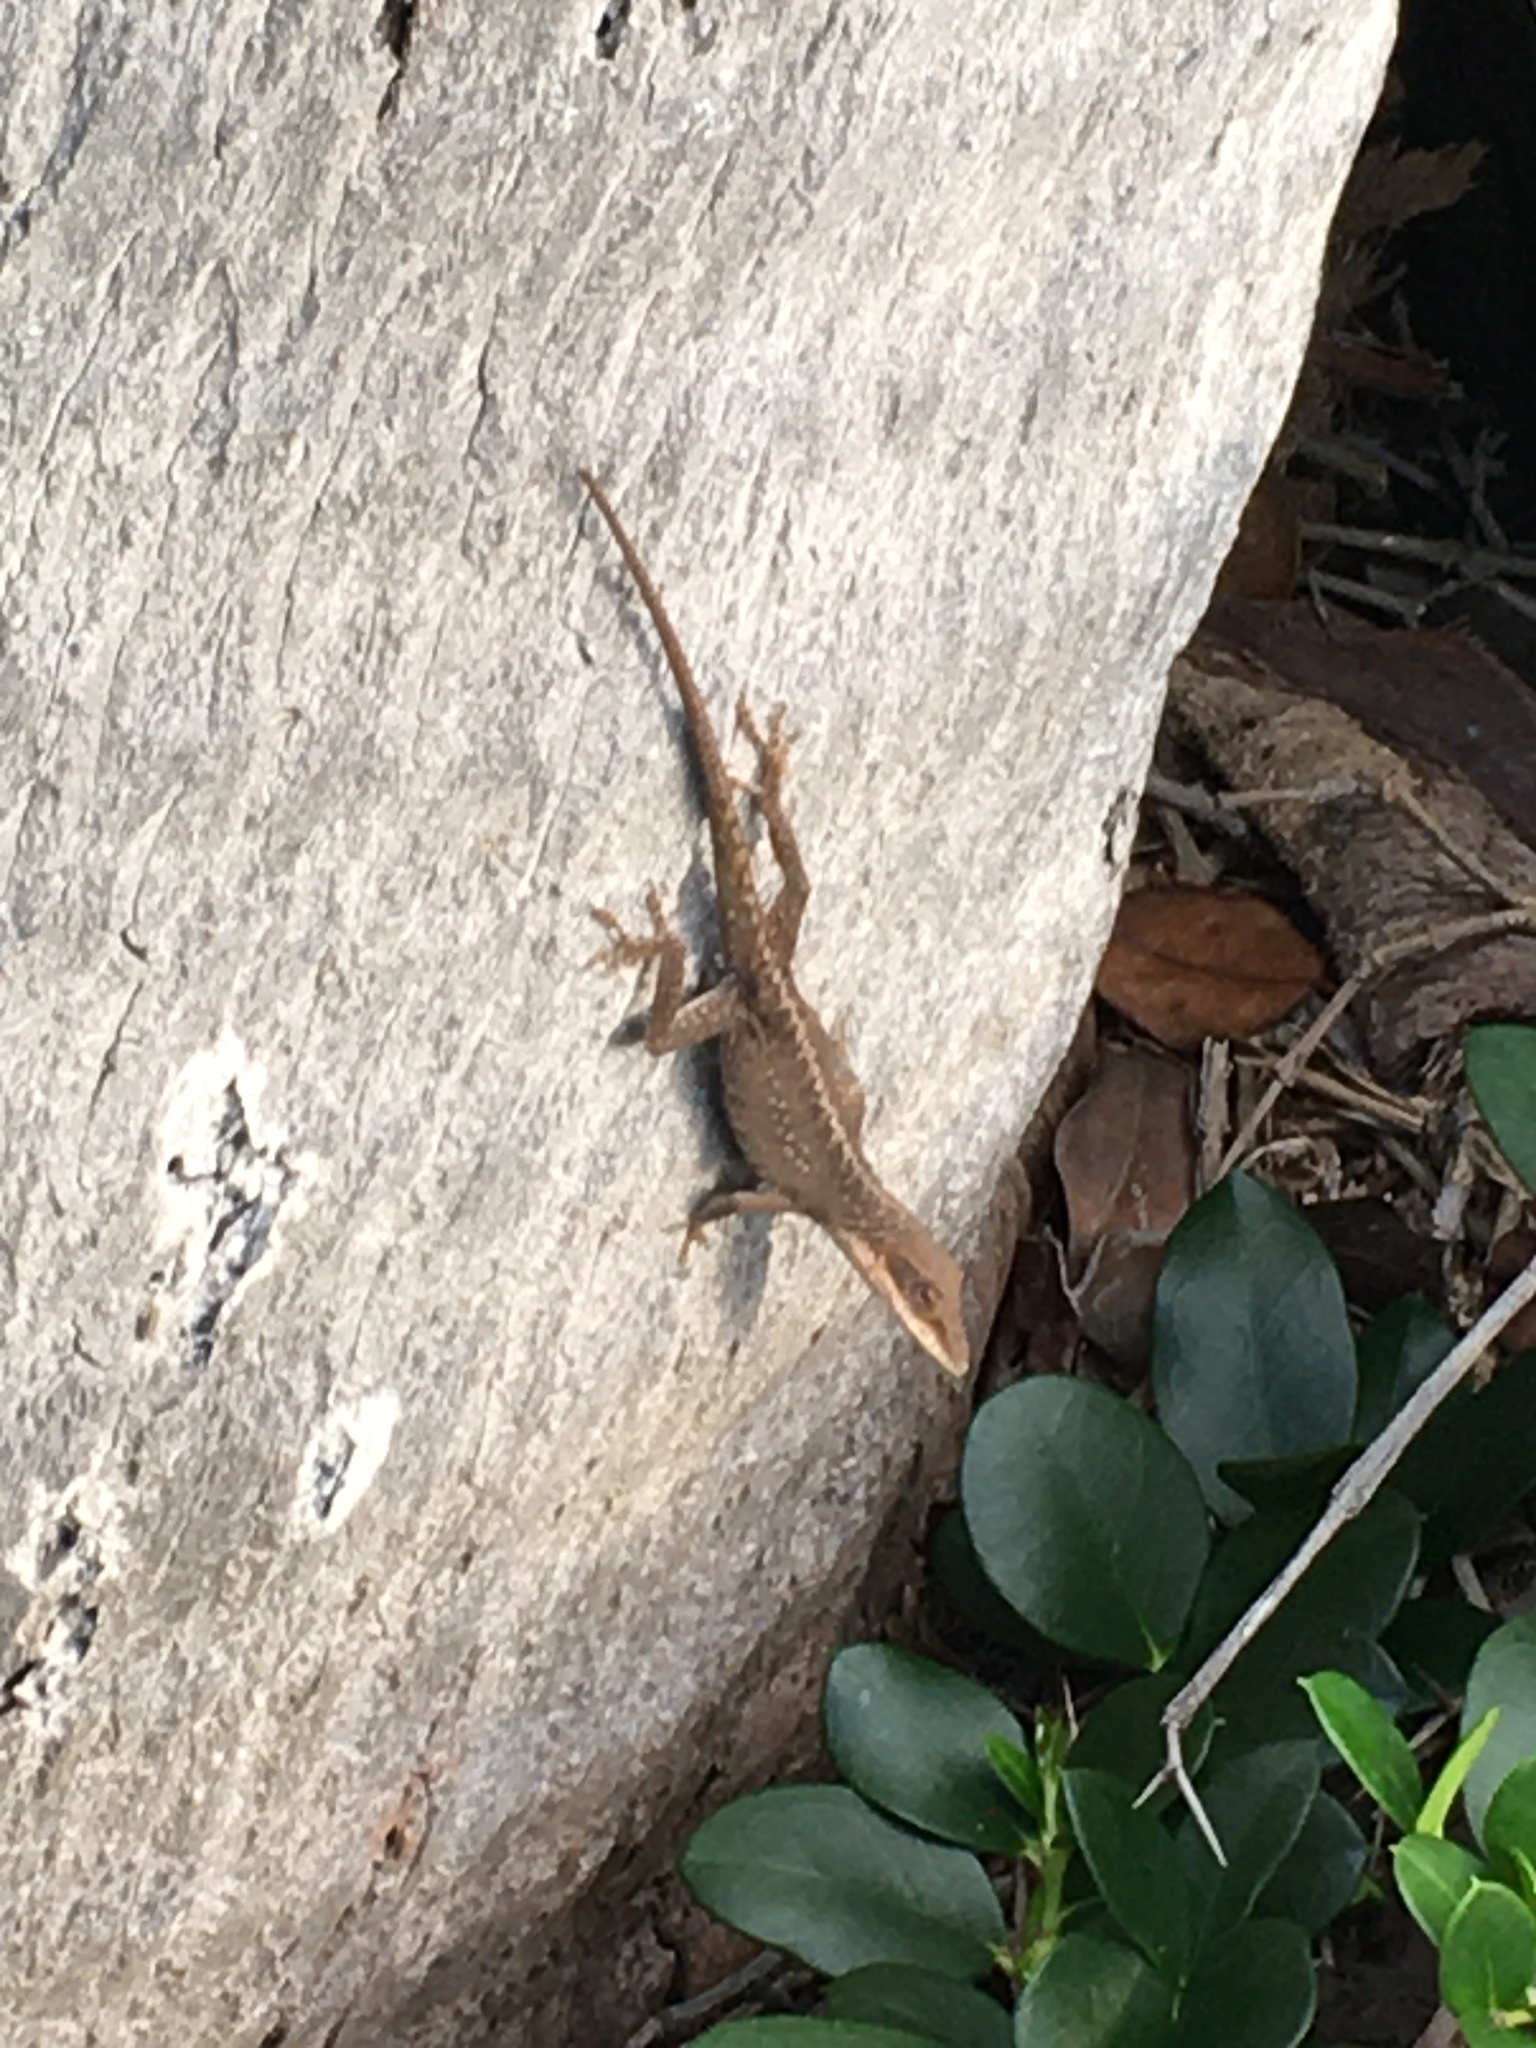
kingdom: Animalia
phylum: Chordata
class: Squamata
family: Dactyloidae
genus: Anolis
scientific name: Anolis carolinensis
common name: Green anole
